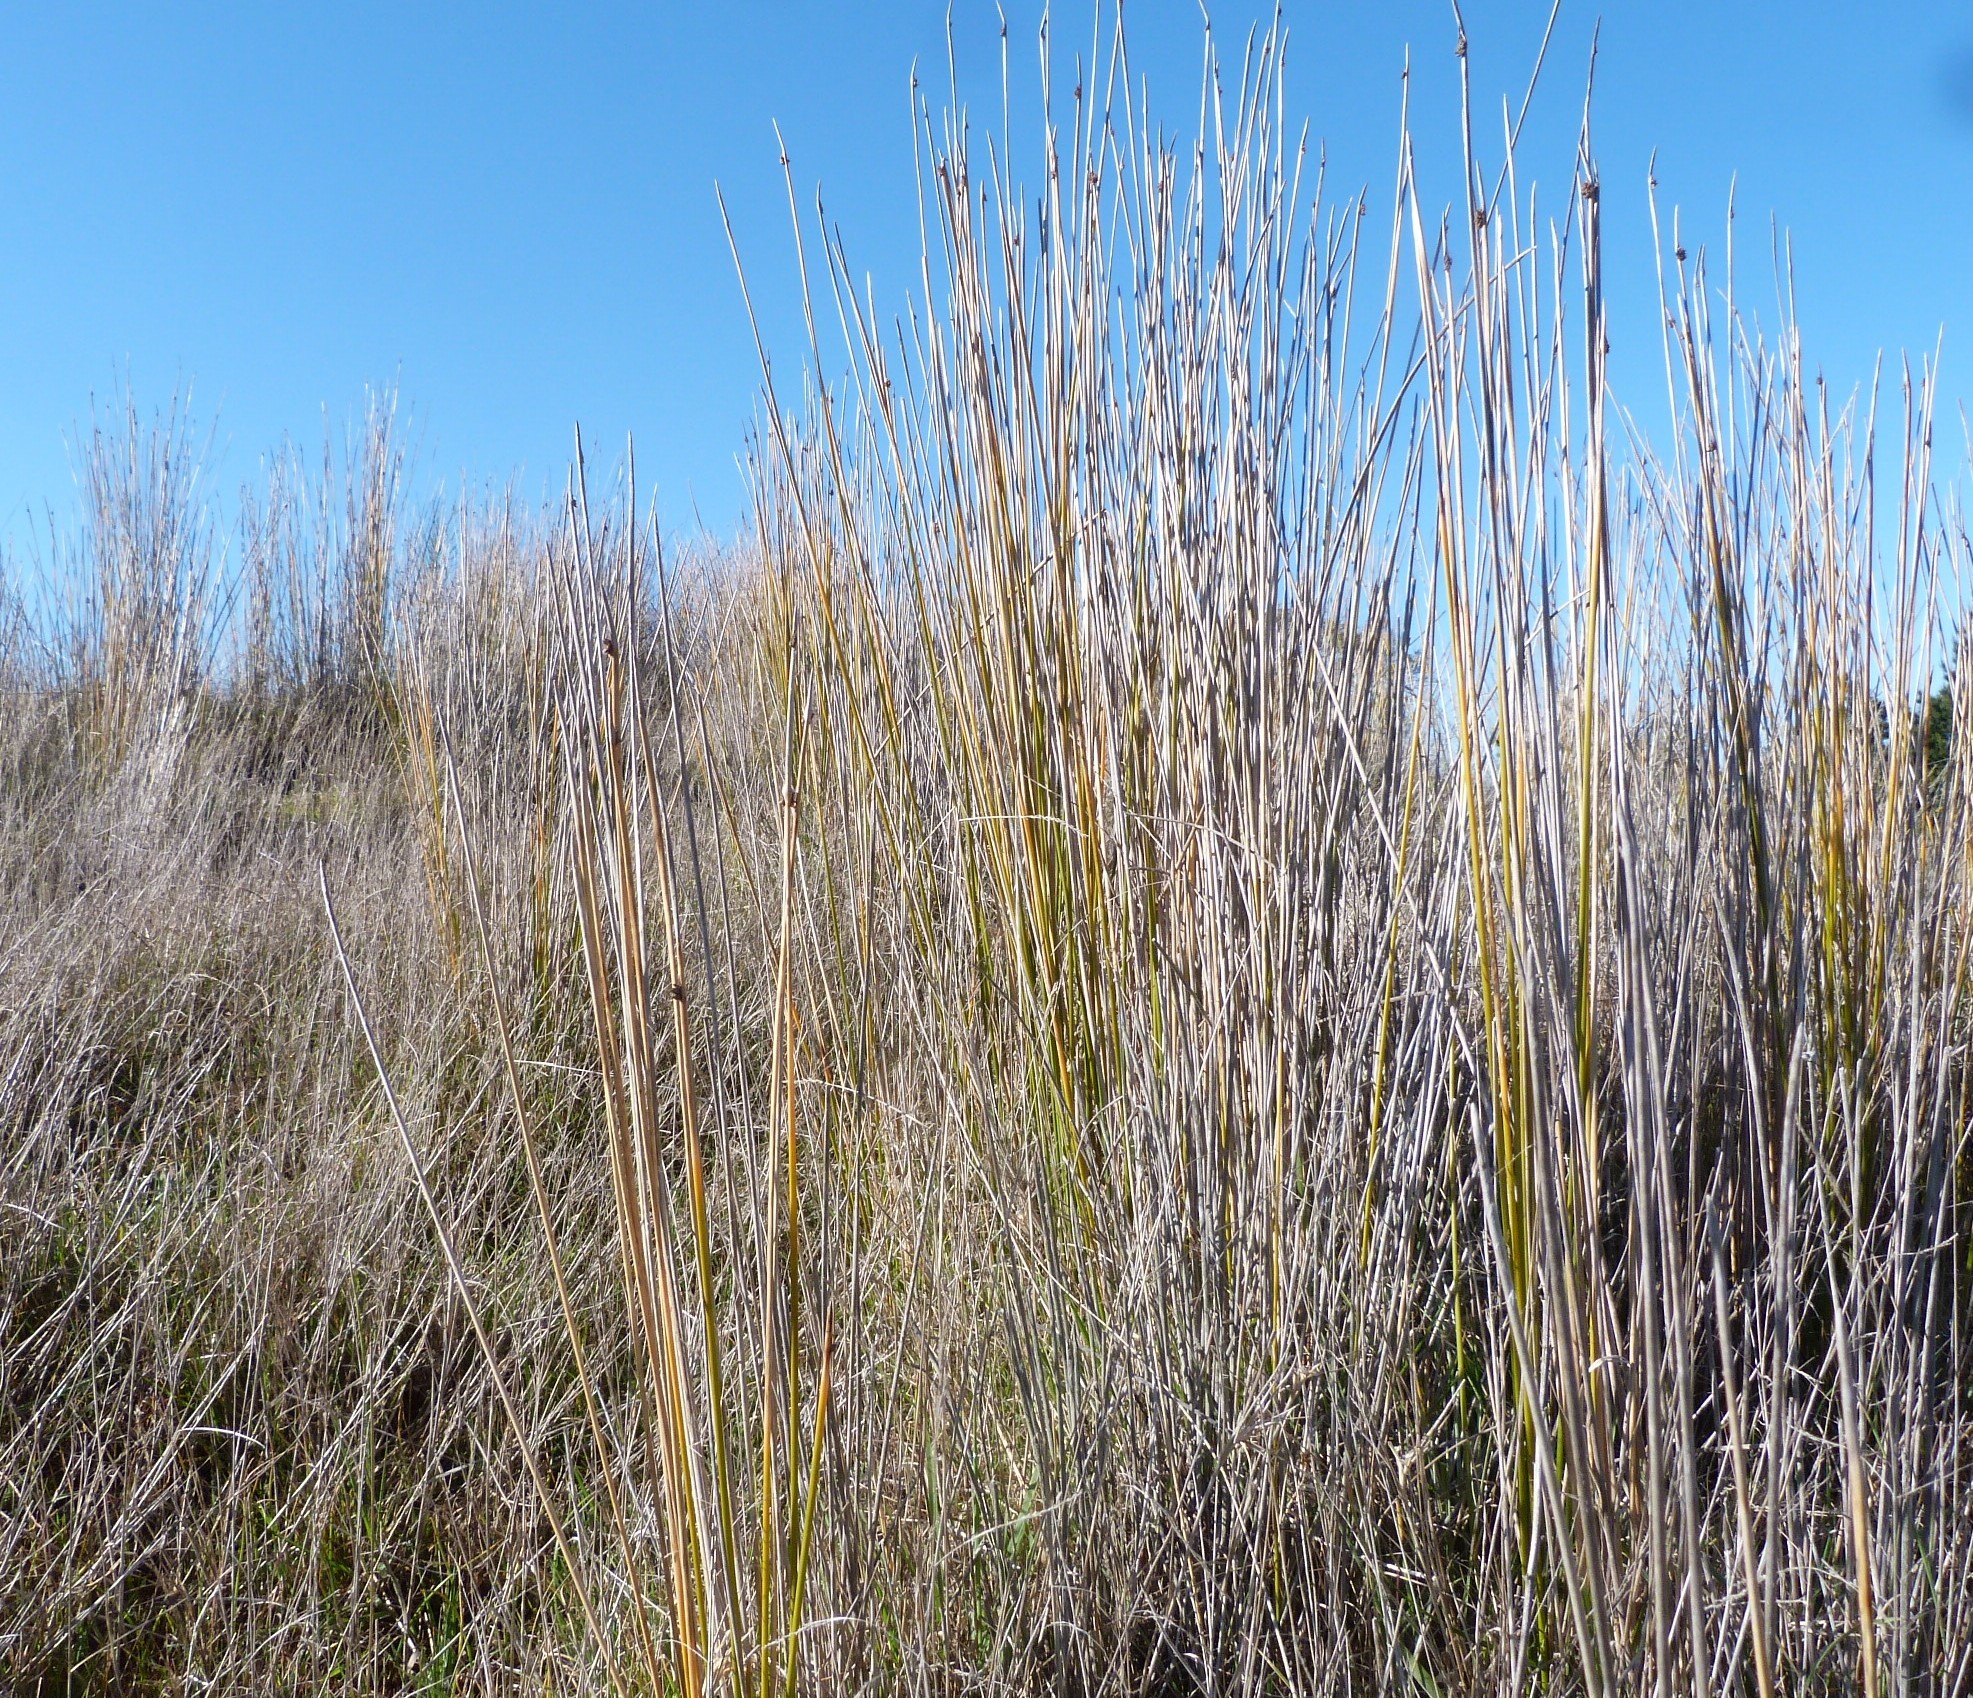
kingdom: Plantae
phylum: Tracheophyta
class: Liliopsida
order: Poales
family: Cyperaceae
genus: Ficinia
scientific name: Ficinia nodosa
